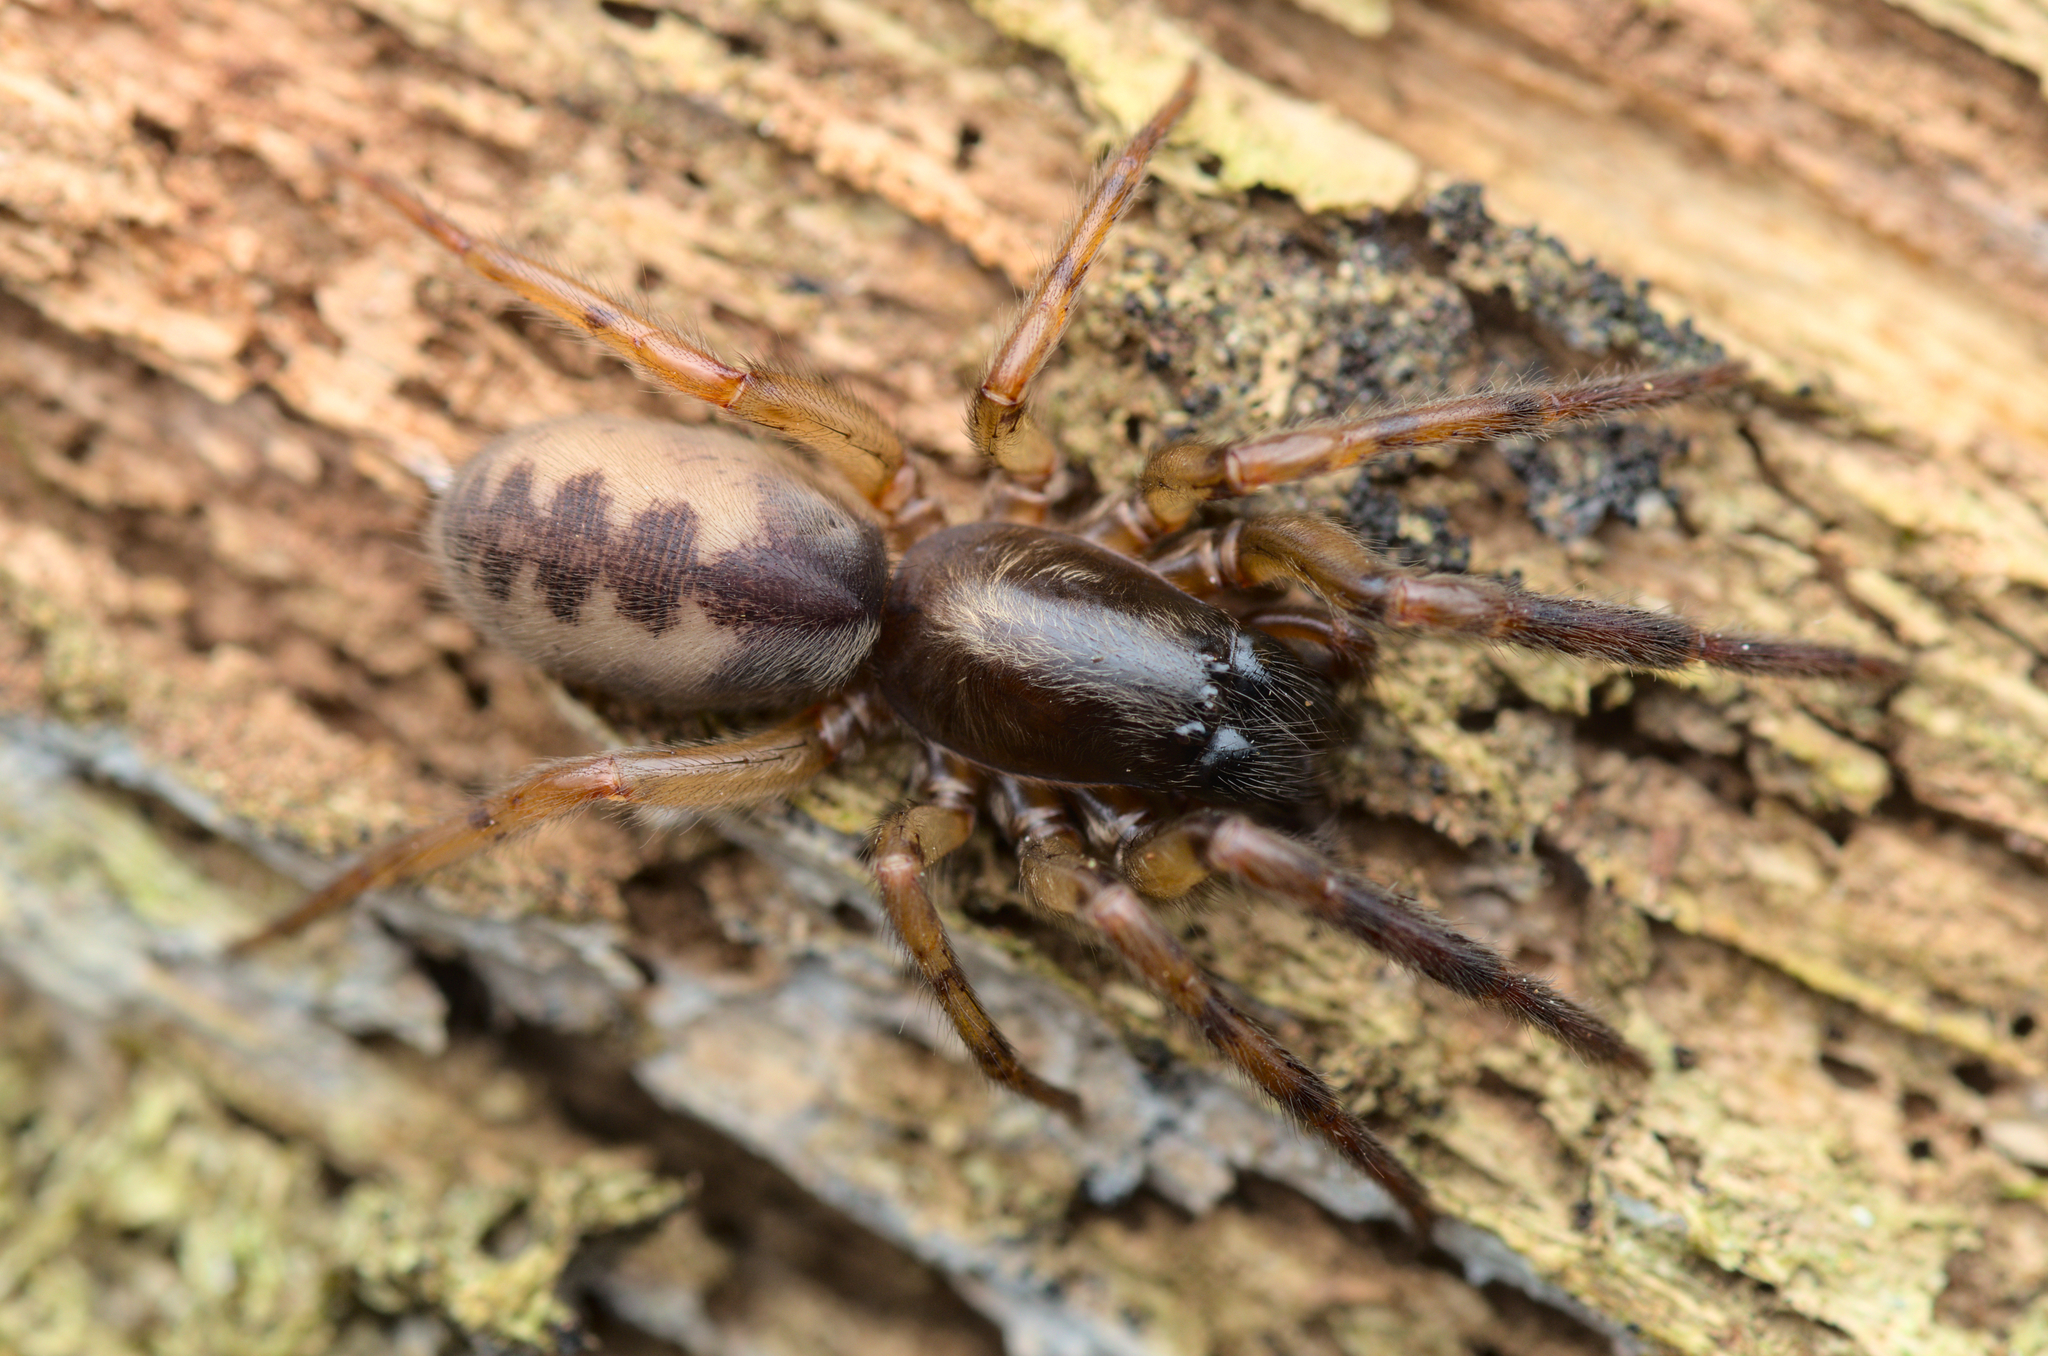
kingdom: Animalia
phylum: Arthropoda
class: Arachnida
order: Araneae
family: Segestriidae
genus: Segestria
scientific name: Segestria senoculata
